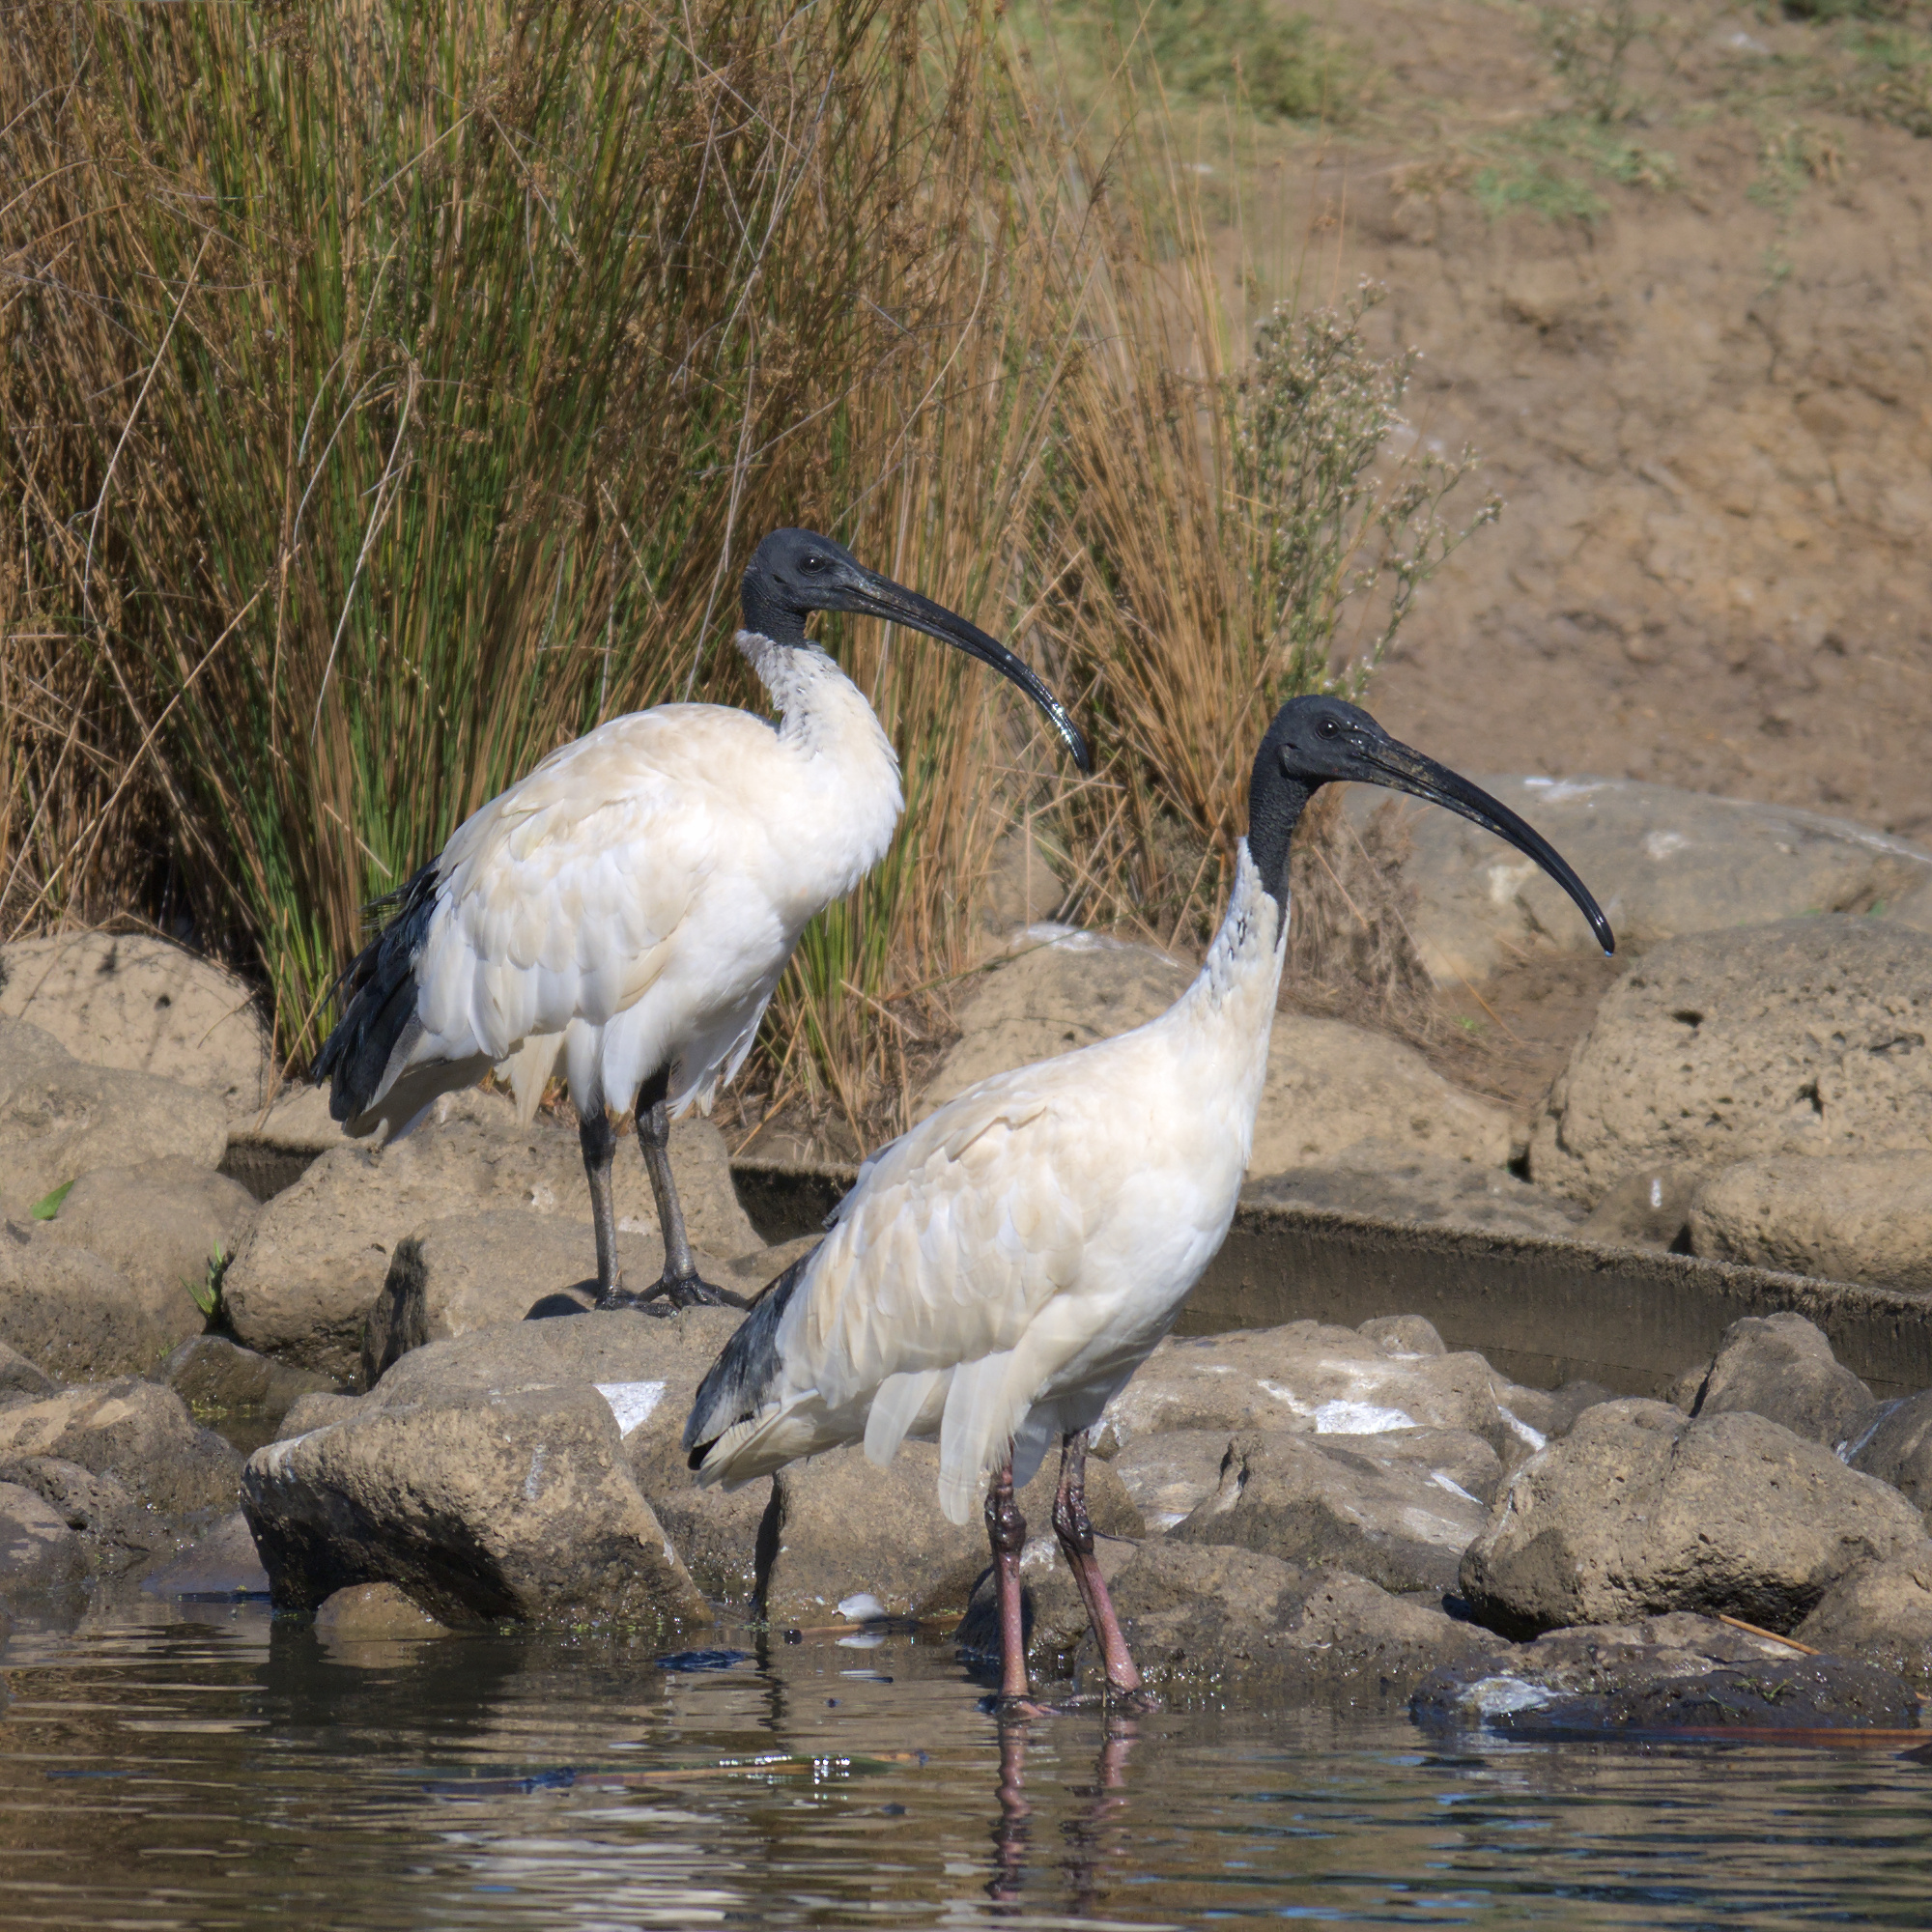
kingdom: Animalia
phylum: Chordata
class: Aves
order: Pelecaniformes
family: Threskiornithidae
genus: Threskiornis
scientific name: Threskiornis molucca
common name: Australian white ibis
